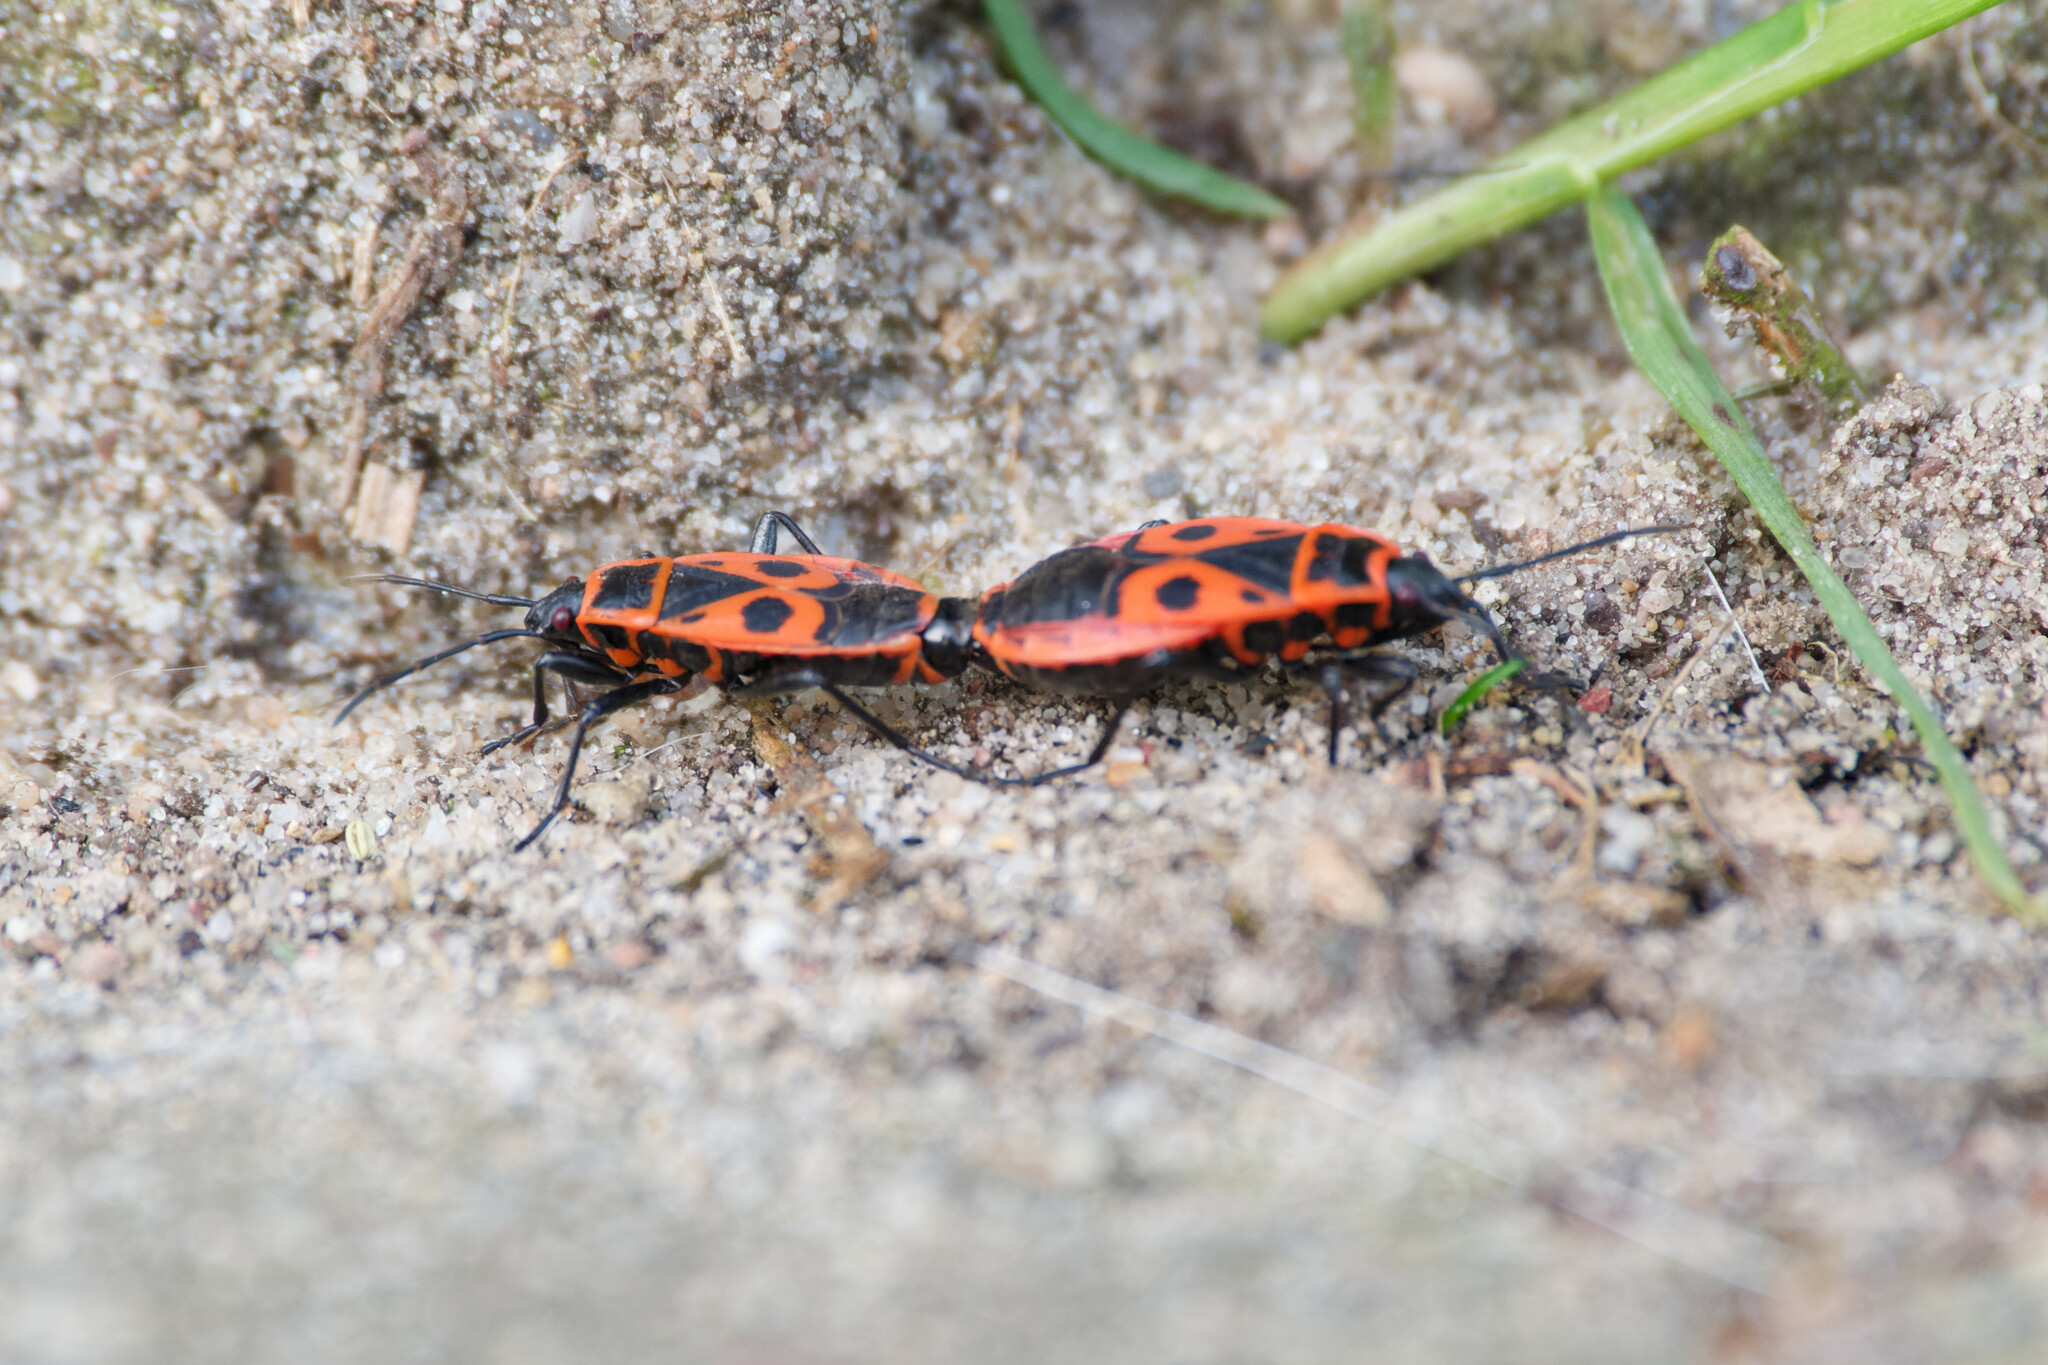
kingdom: Animalia
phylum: Arthropoda
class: Insecta
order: Hemiptera
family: Pyrrhocoridae
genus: Pyrrhocoris
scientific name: Pyrrhocoris apterus
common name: Firebug
